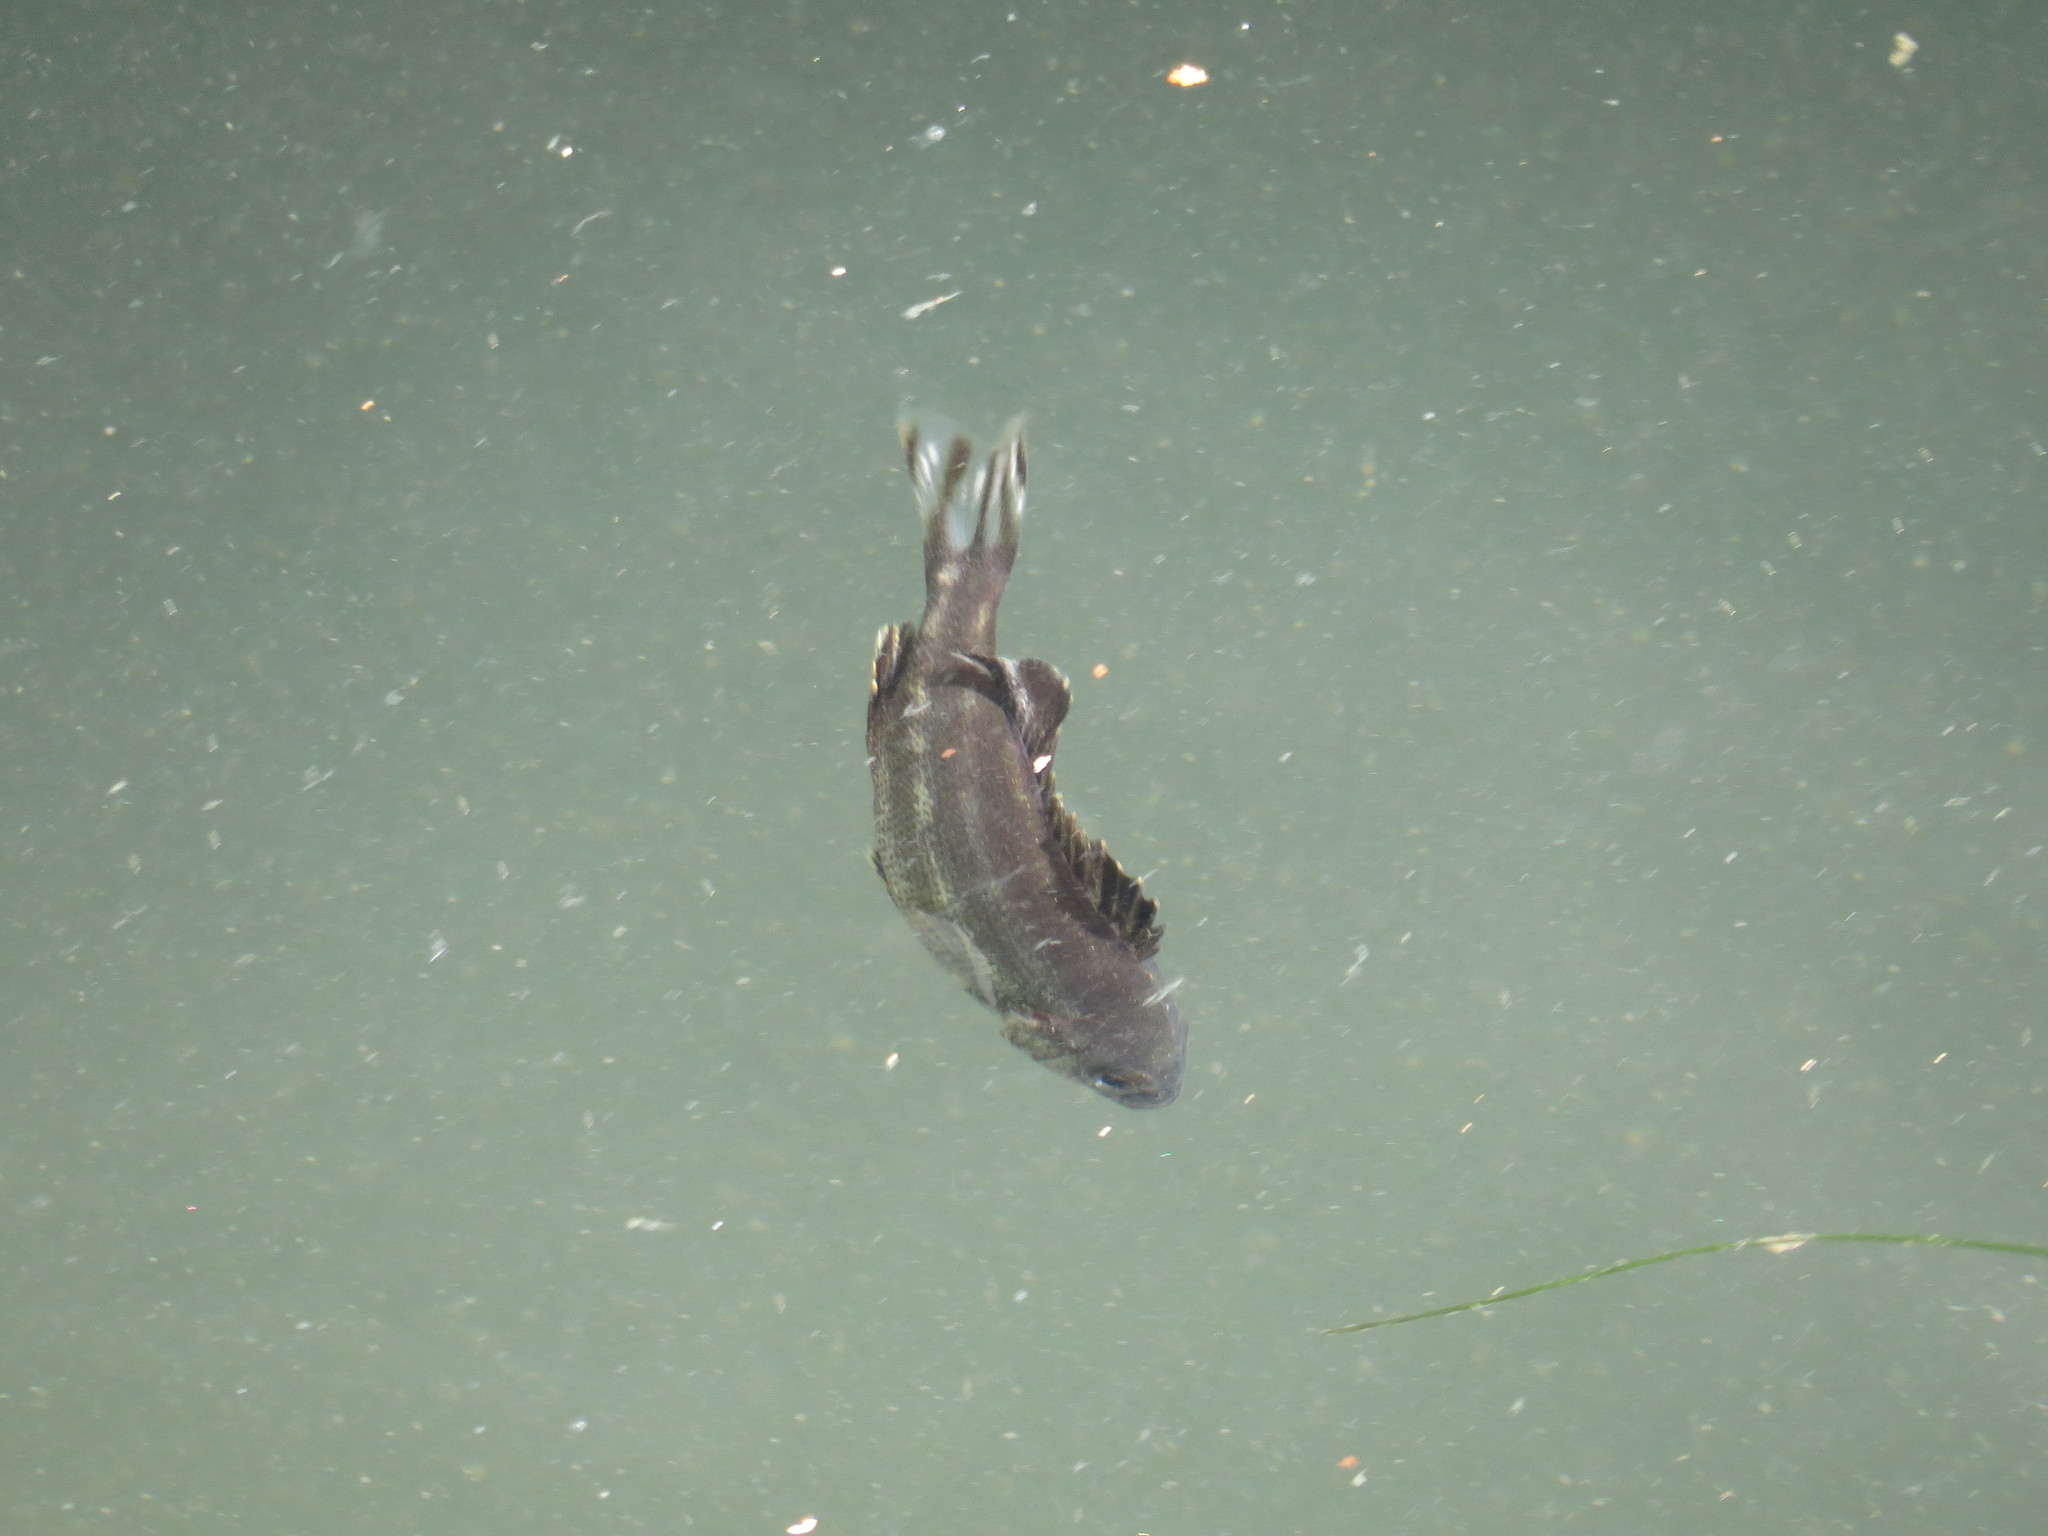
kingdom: Animalia
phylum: Chordata
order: Perciformes
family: Terapontidae
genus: Terapon
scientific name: Terapon theraps
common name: Largescaled therapon
